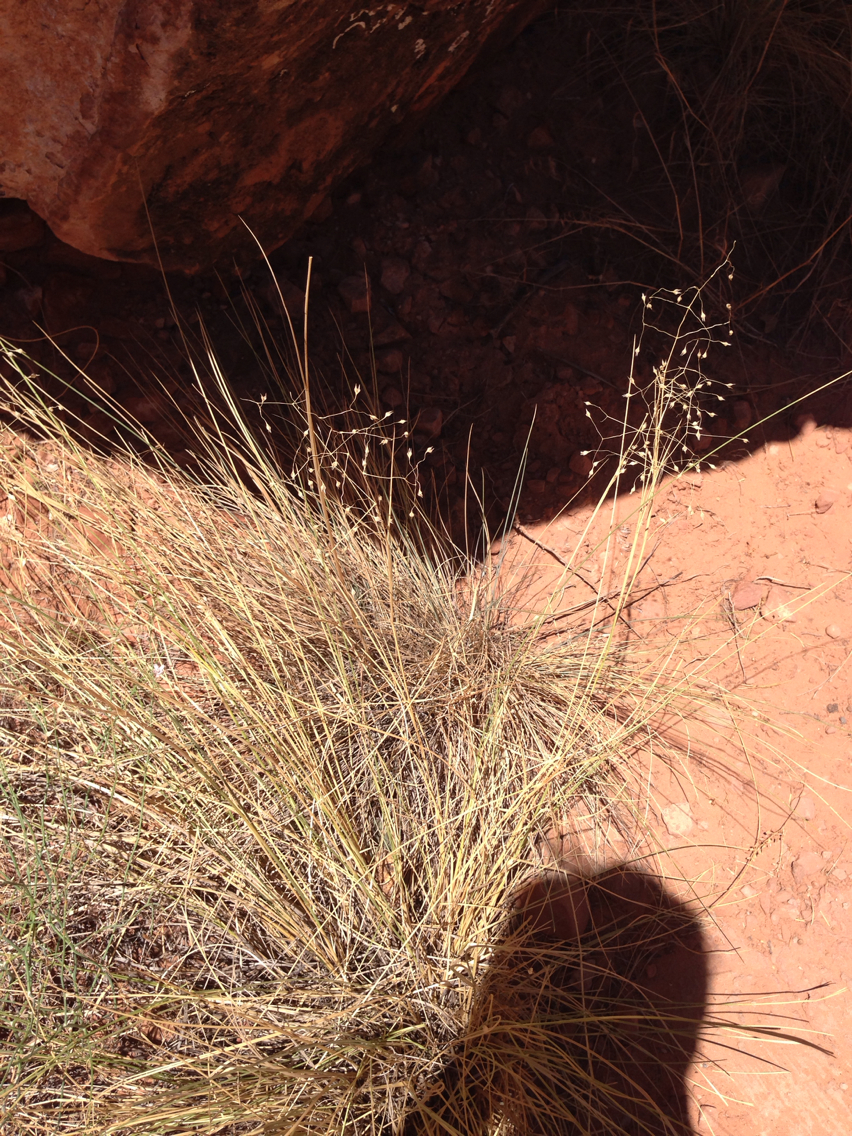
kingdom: Plantae
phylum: Tracheophyta
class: Liliopsida
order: Poales
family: Poaceae
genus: Eriocoma
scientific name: Eriocoma hymenoides
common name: Indian mountain ricegrass
